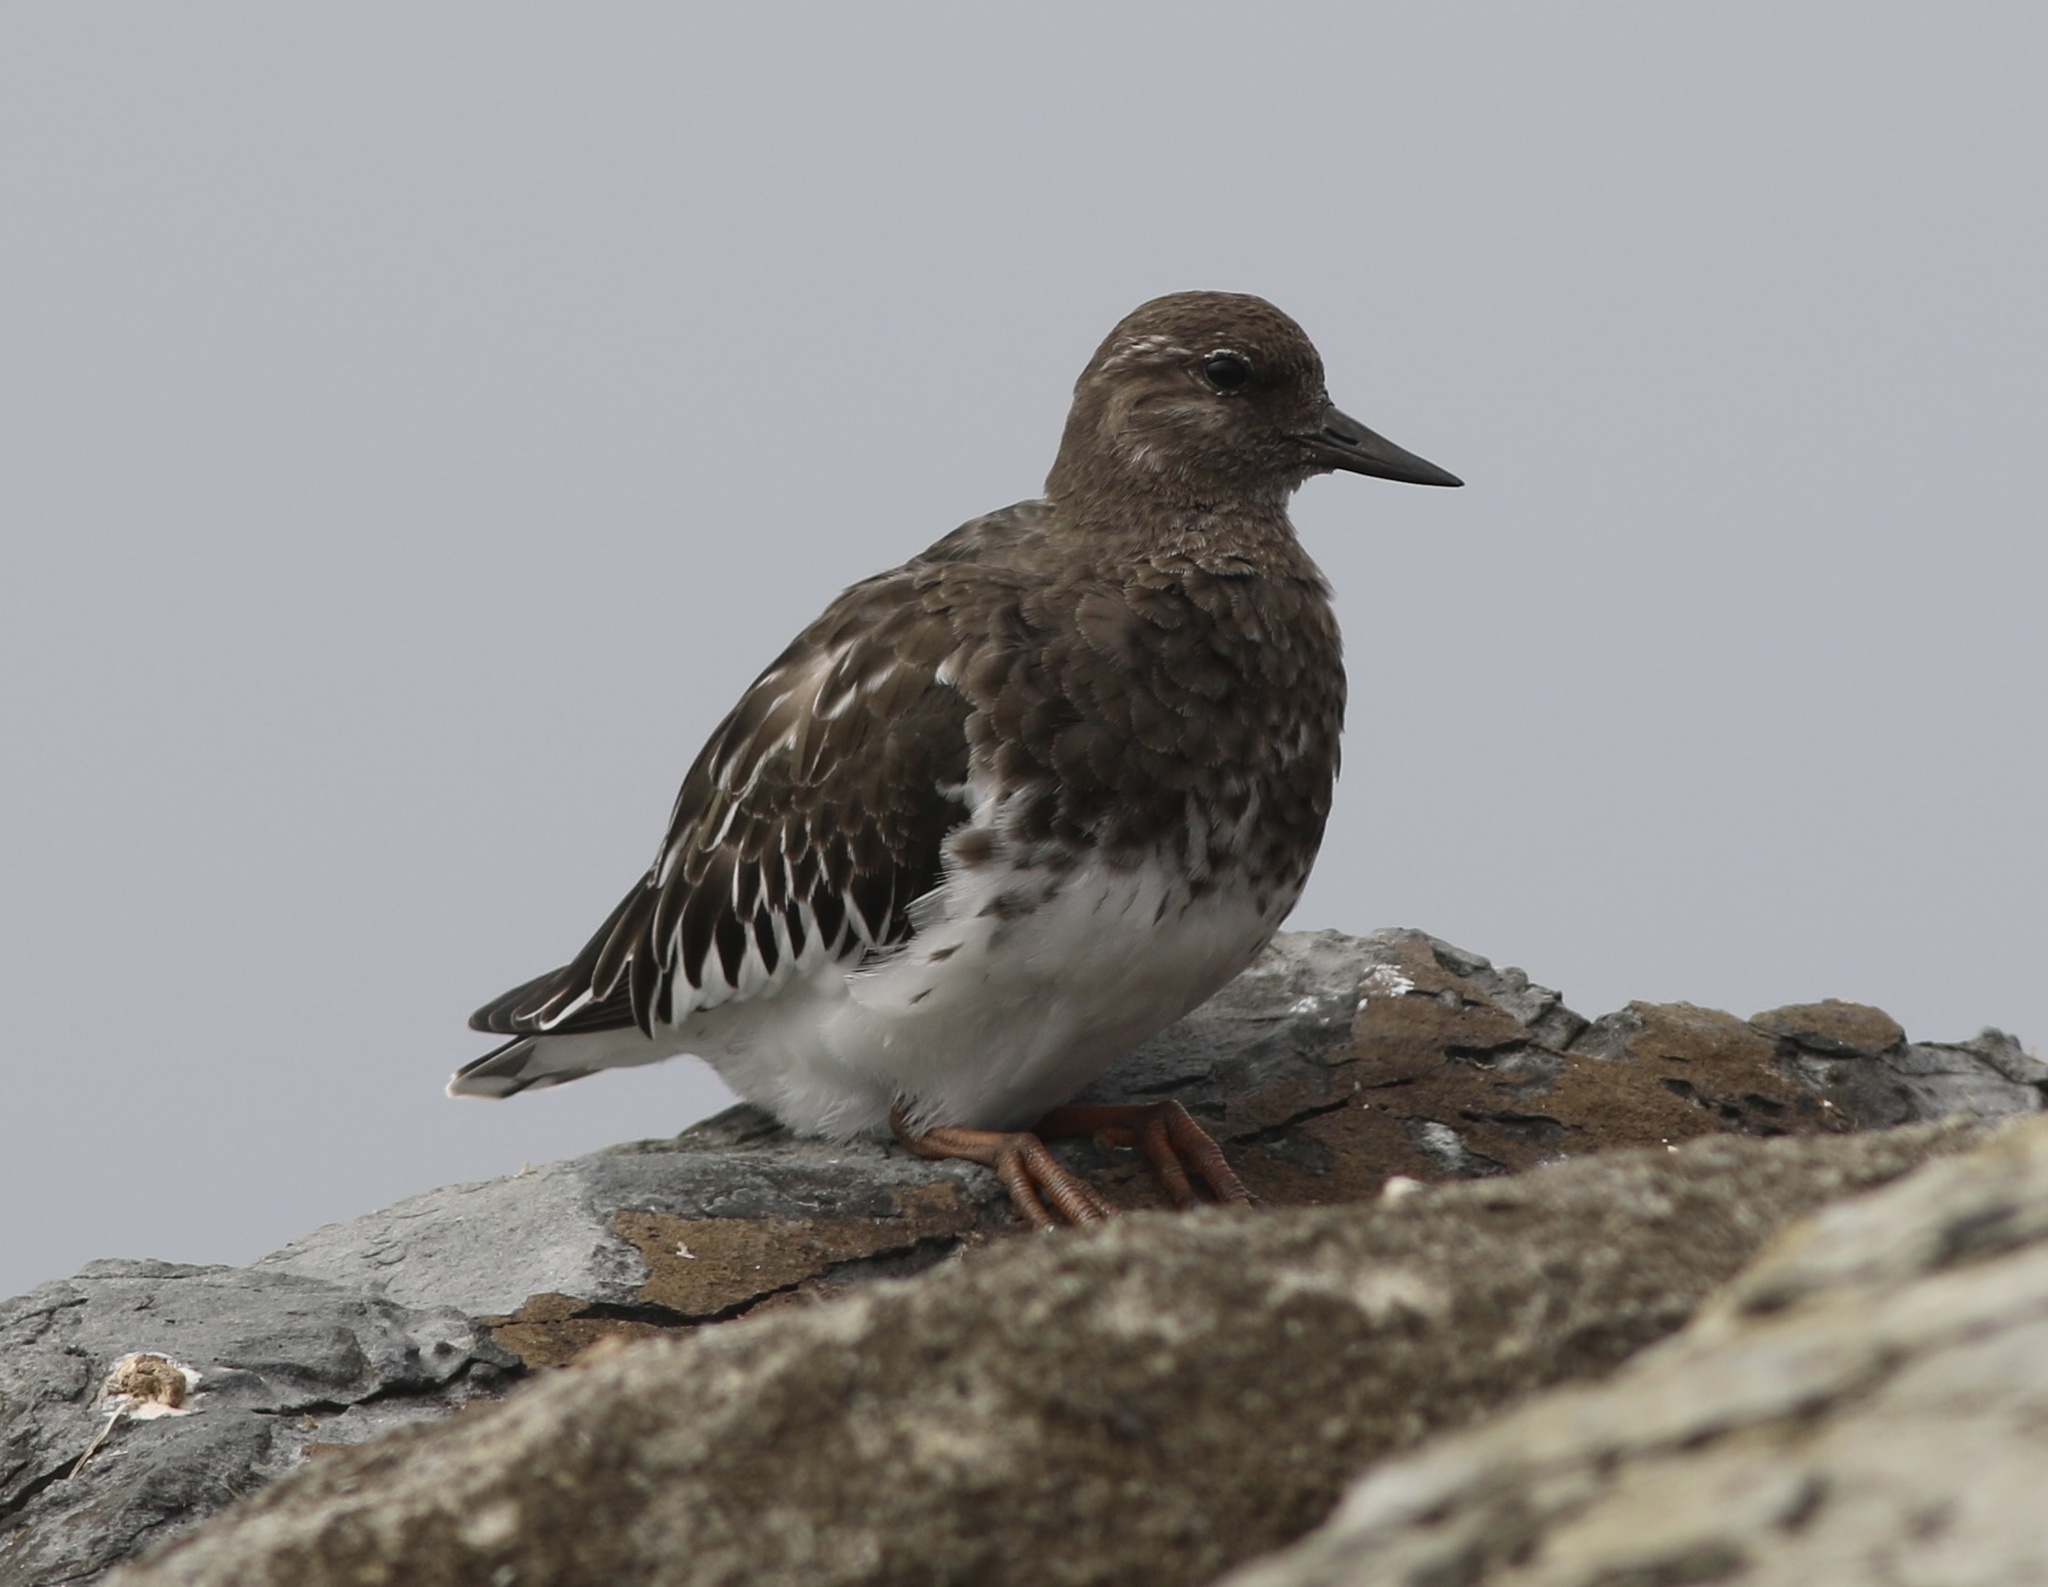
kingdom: Animalia
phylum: Chordata
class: Aves
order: Charadriiformes
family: Scolopacidae
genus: Arenaria
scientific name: Arenaria melanocephala
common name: Black turnstone
